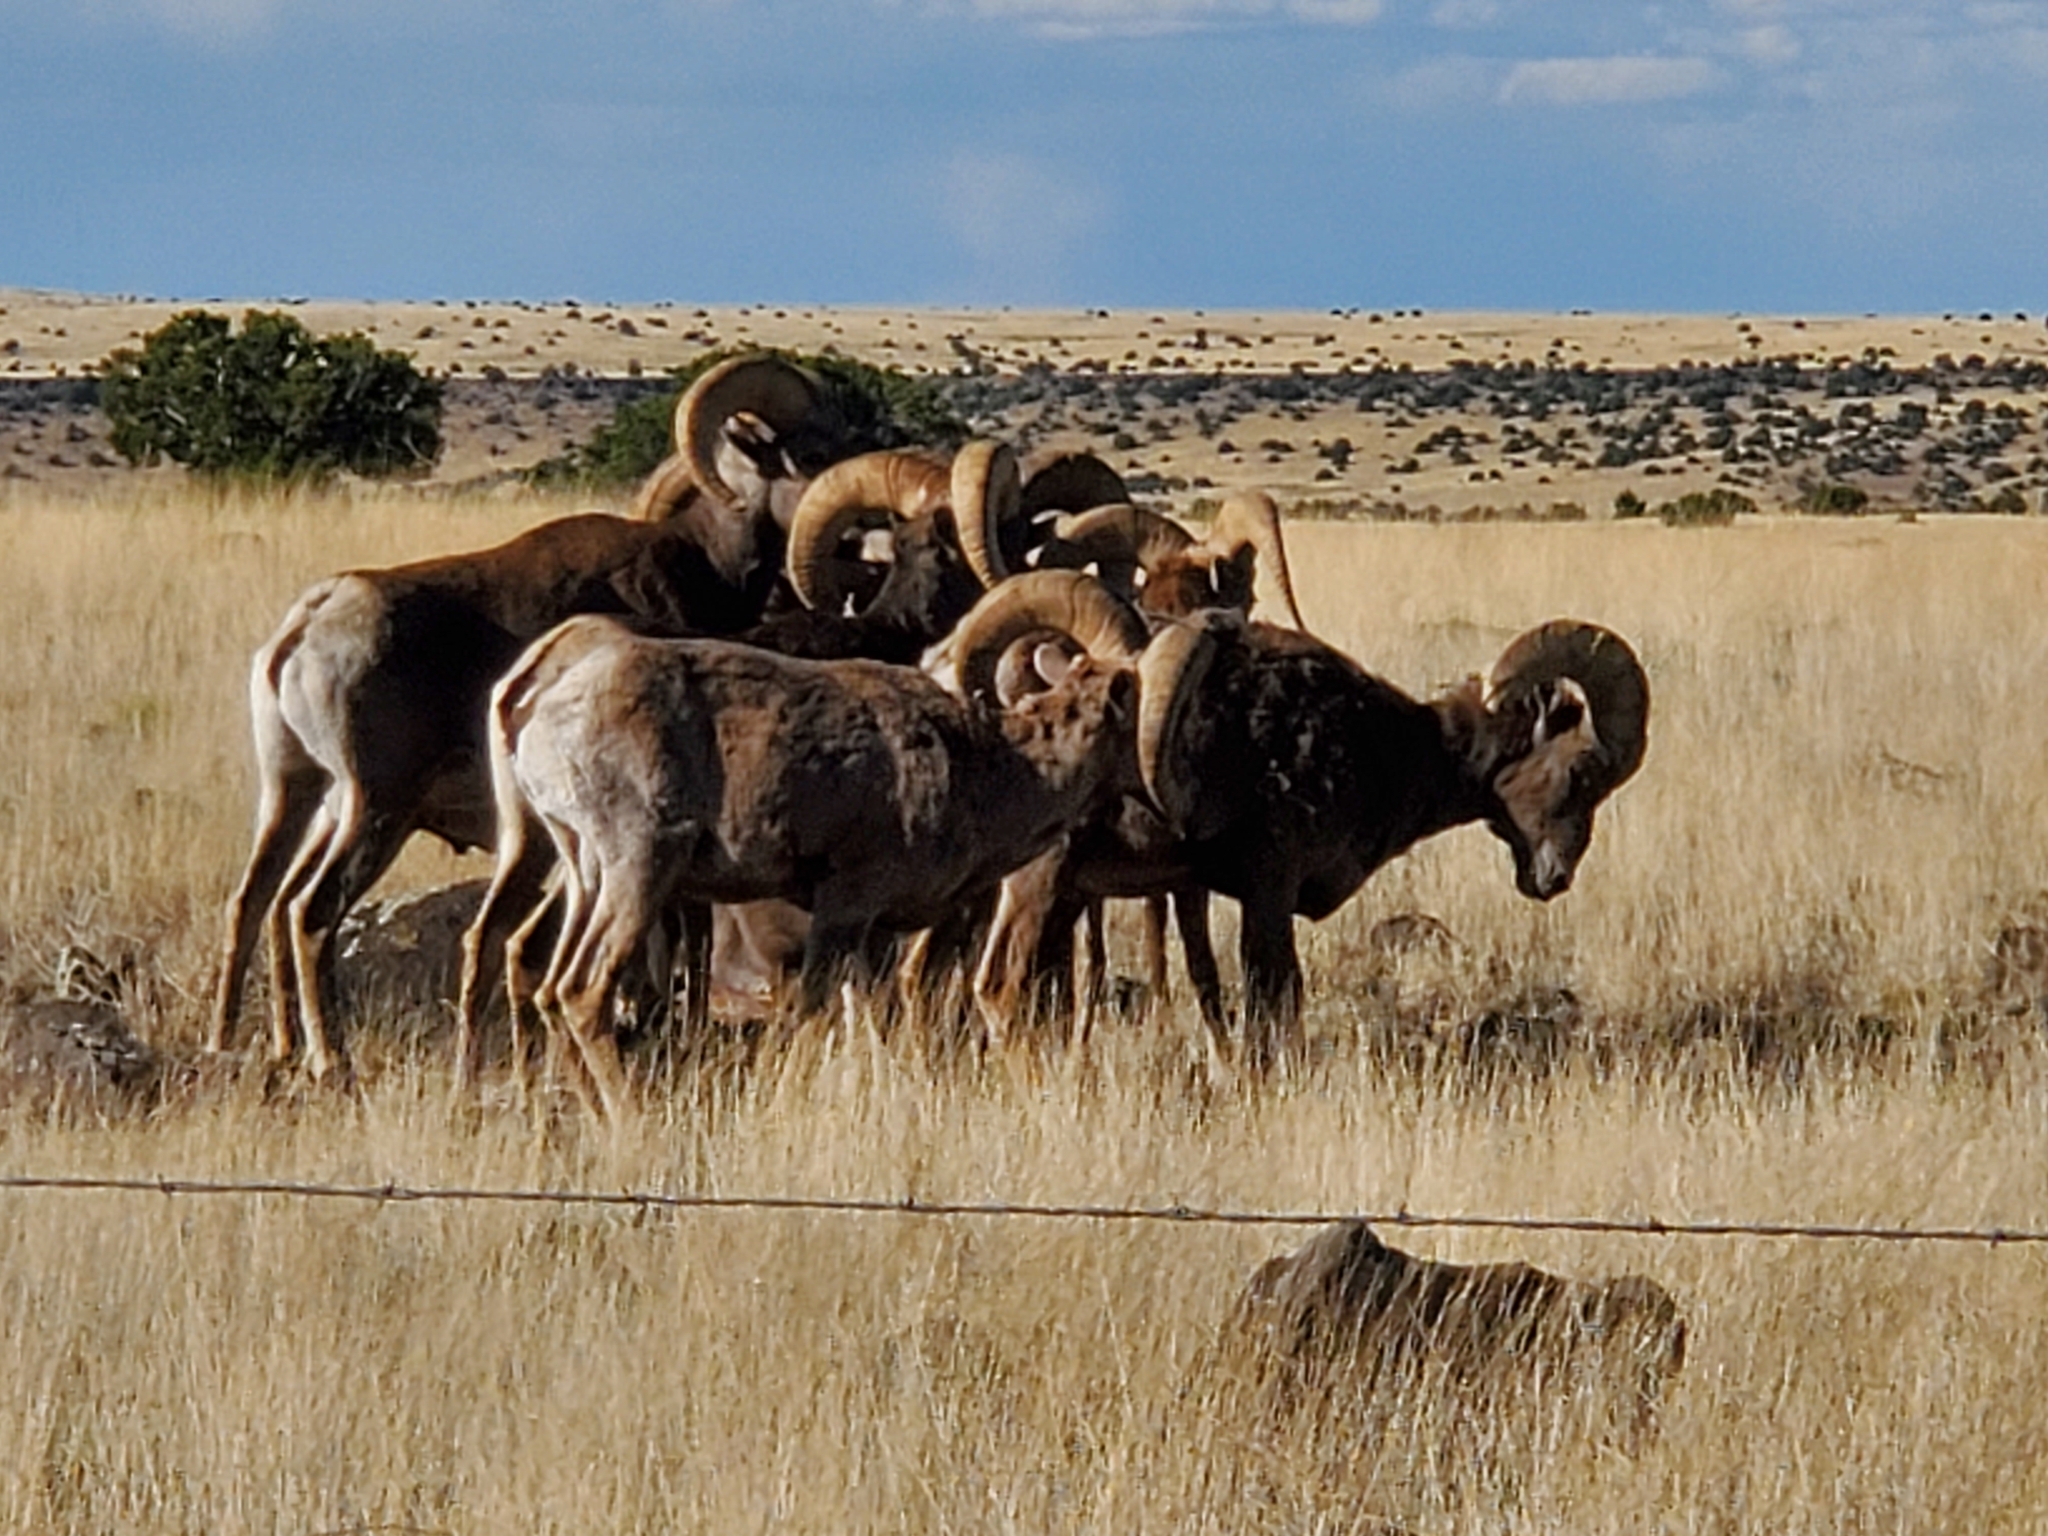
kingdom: Animalia
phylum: Chordata
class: Mammalia
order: Artiodactyla
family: Bovidae
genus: Ovis
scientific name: Ovis canadensis
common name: Bighorn sheep
